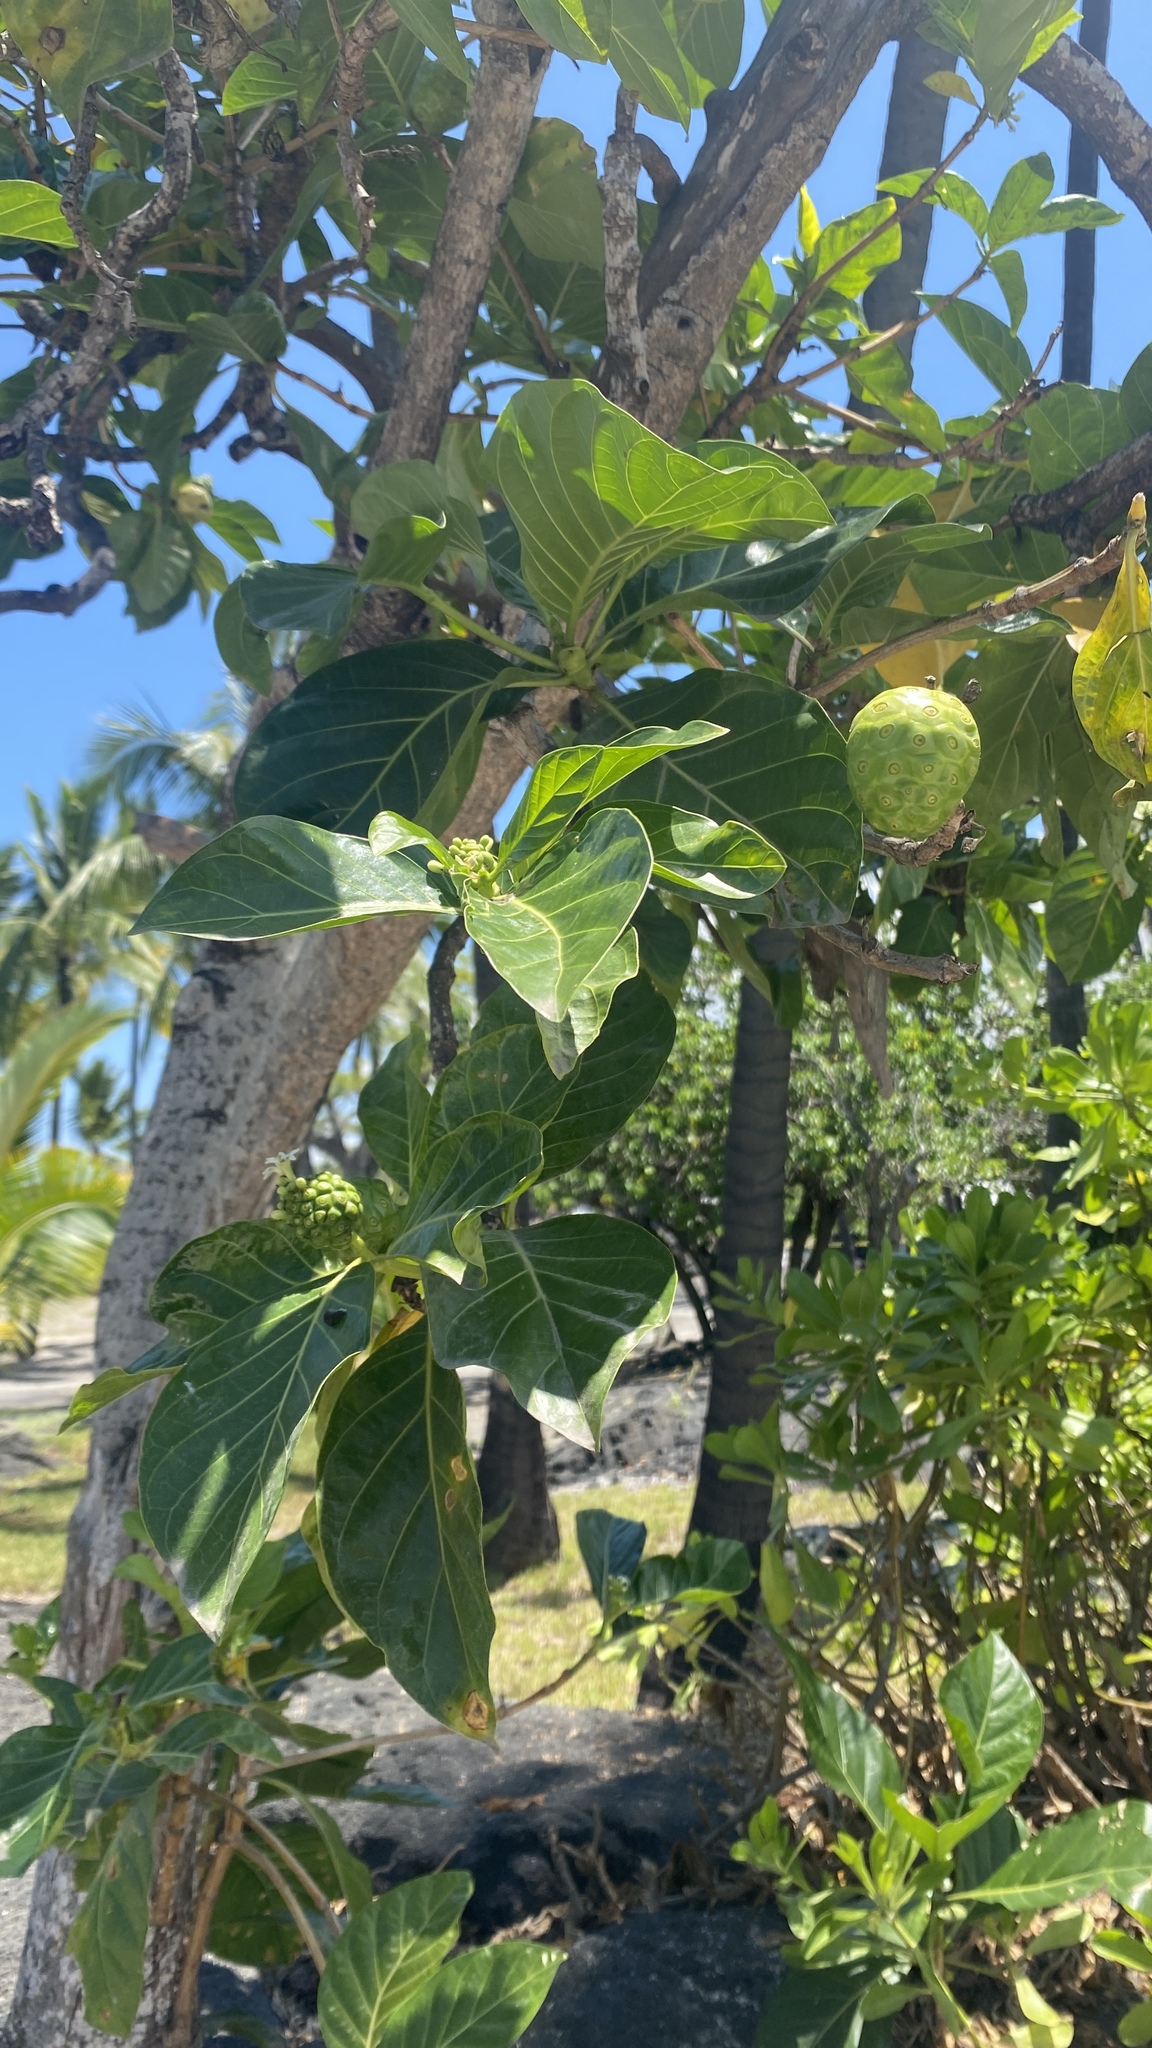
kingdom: Plantae
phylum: Tracheophyta
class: Magnoliopsida
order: Gentianales
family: Rubiaceae
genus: Morinda
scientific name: Morinda citrifolia
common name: Indian-mulberry
